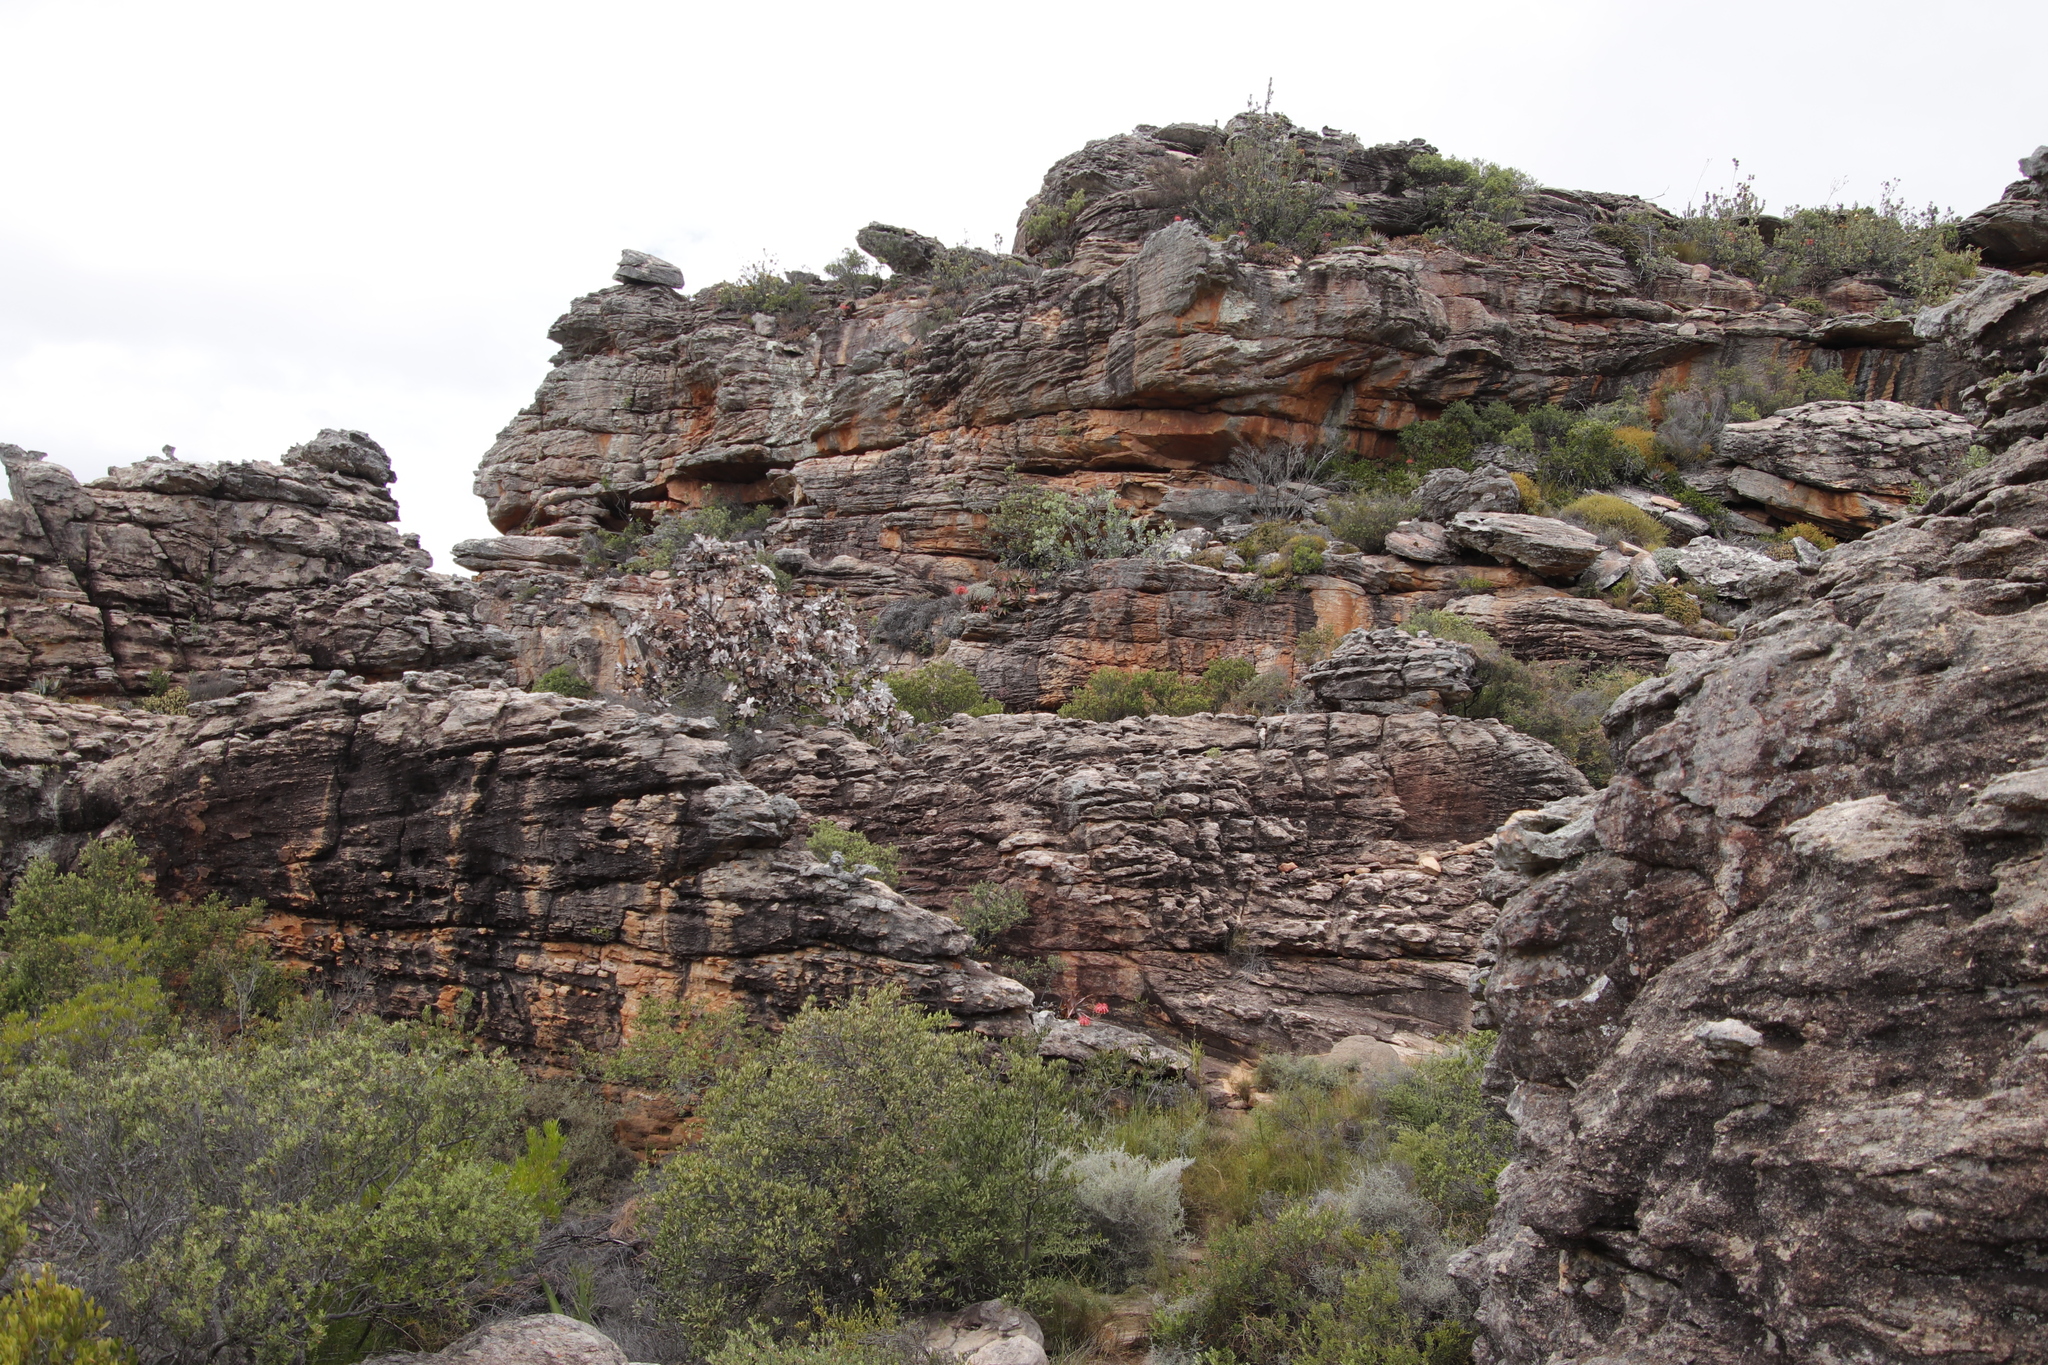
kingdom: Plantae
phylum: Tracheophyta
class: Magnoliopsida
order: Proteales
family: Proteaceae
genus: Protea
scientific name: Protea nitida
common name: Tree protea
